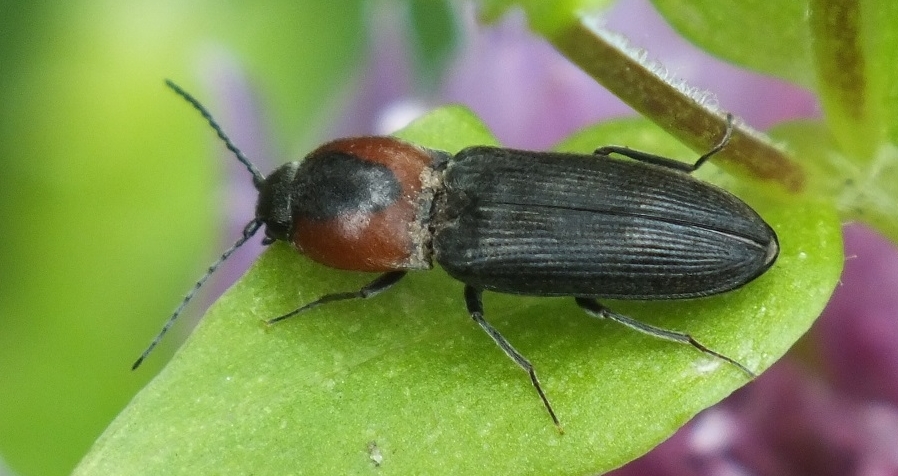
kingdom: Animalia
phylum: Arthropoda
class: Insecta
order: Coleoptera
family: Elateridae
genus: Cardiophorus
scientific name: Cardiophorus discicollis
